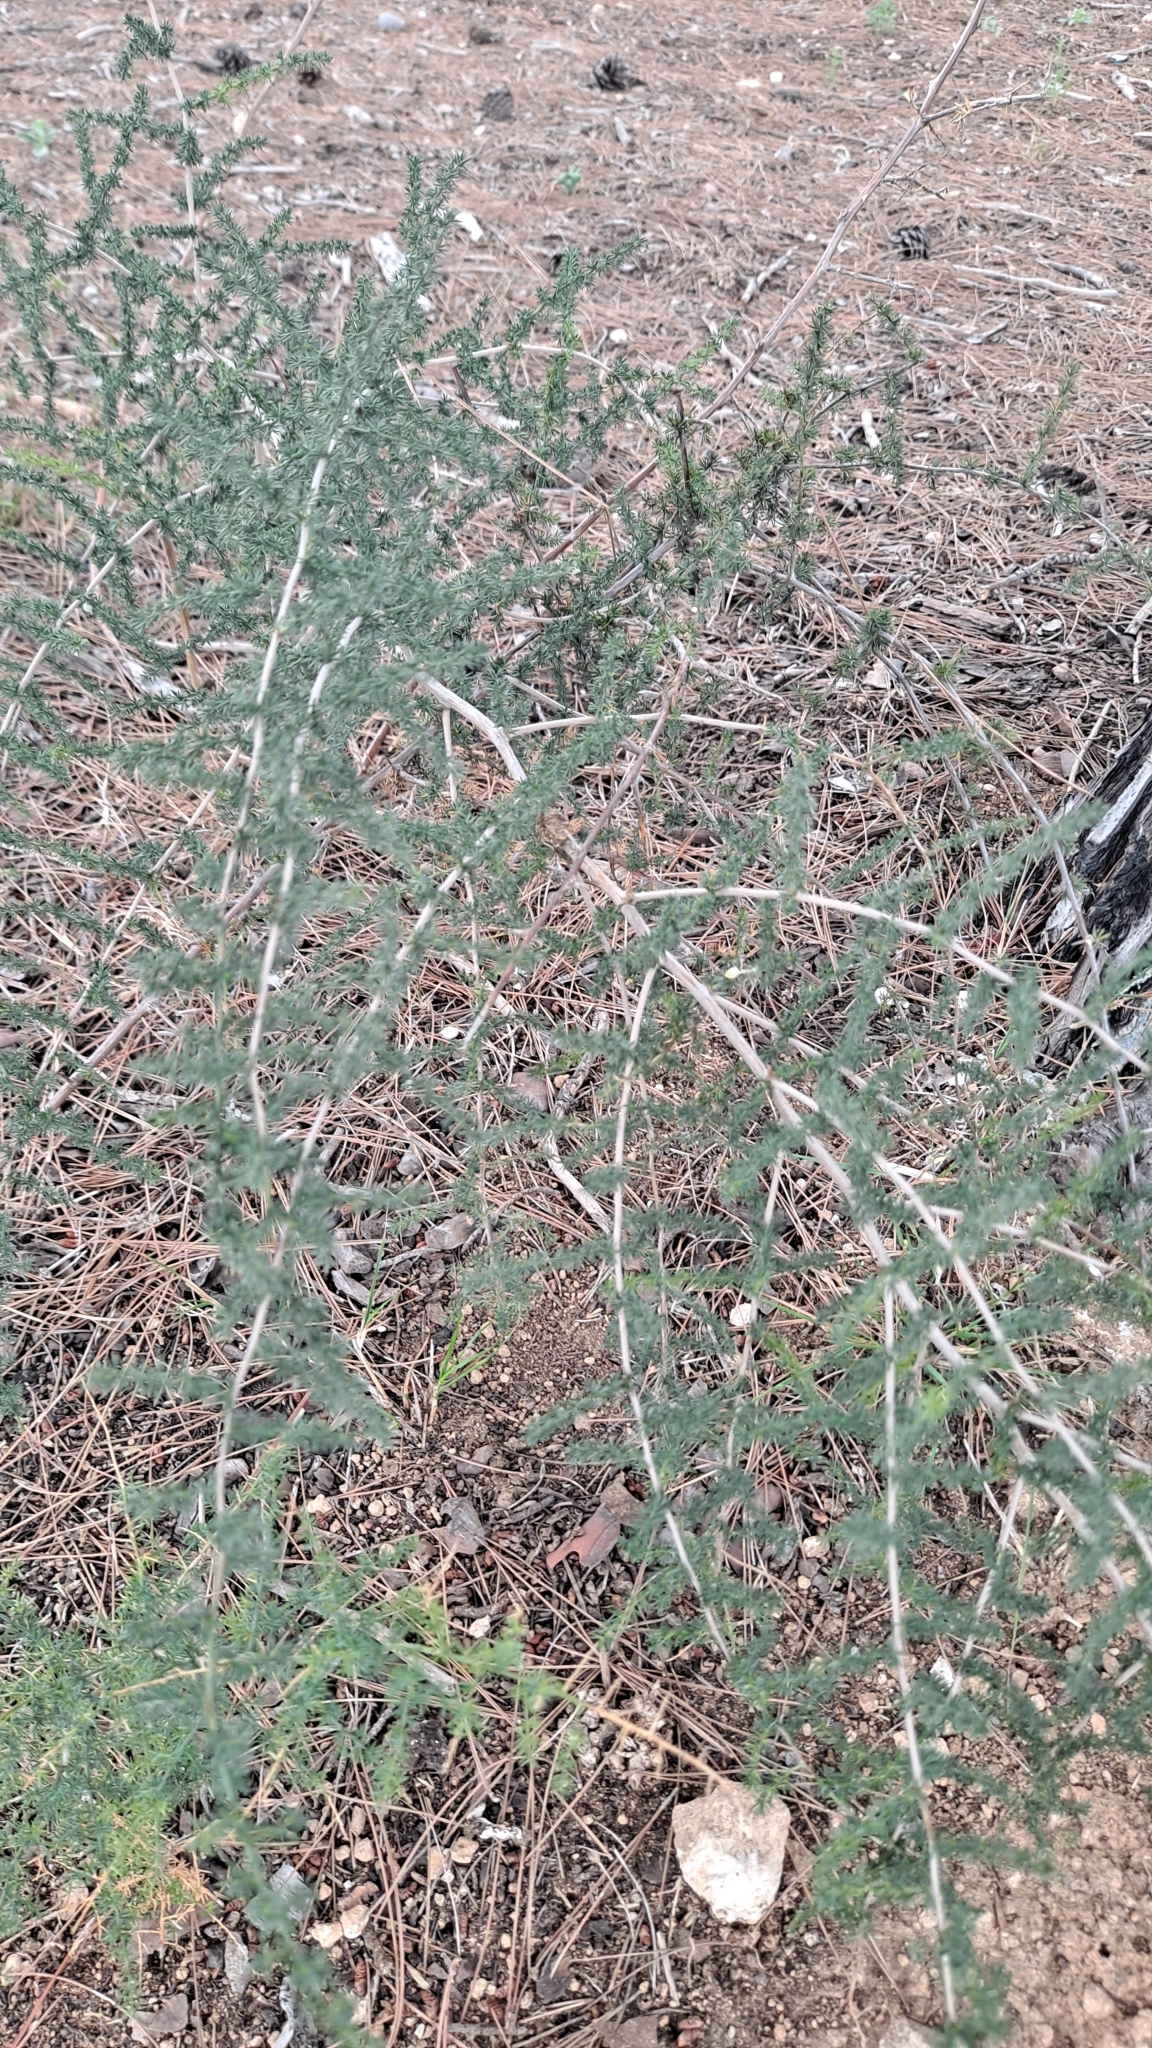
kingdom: Plantae
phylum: Tracheophyta
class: Liliopsida
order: Asparagales
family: Asparagaceae
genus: Asparagus
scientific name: Asparagus acutifolius
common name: Wild asparagus
